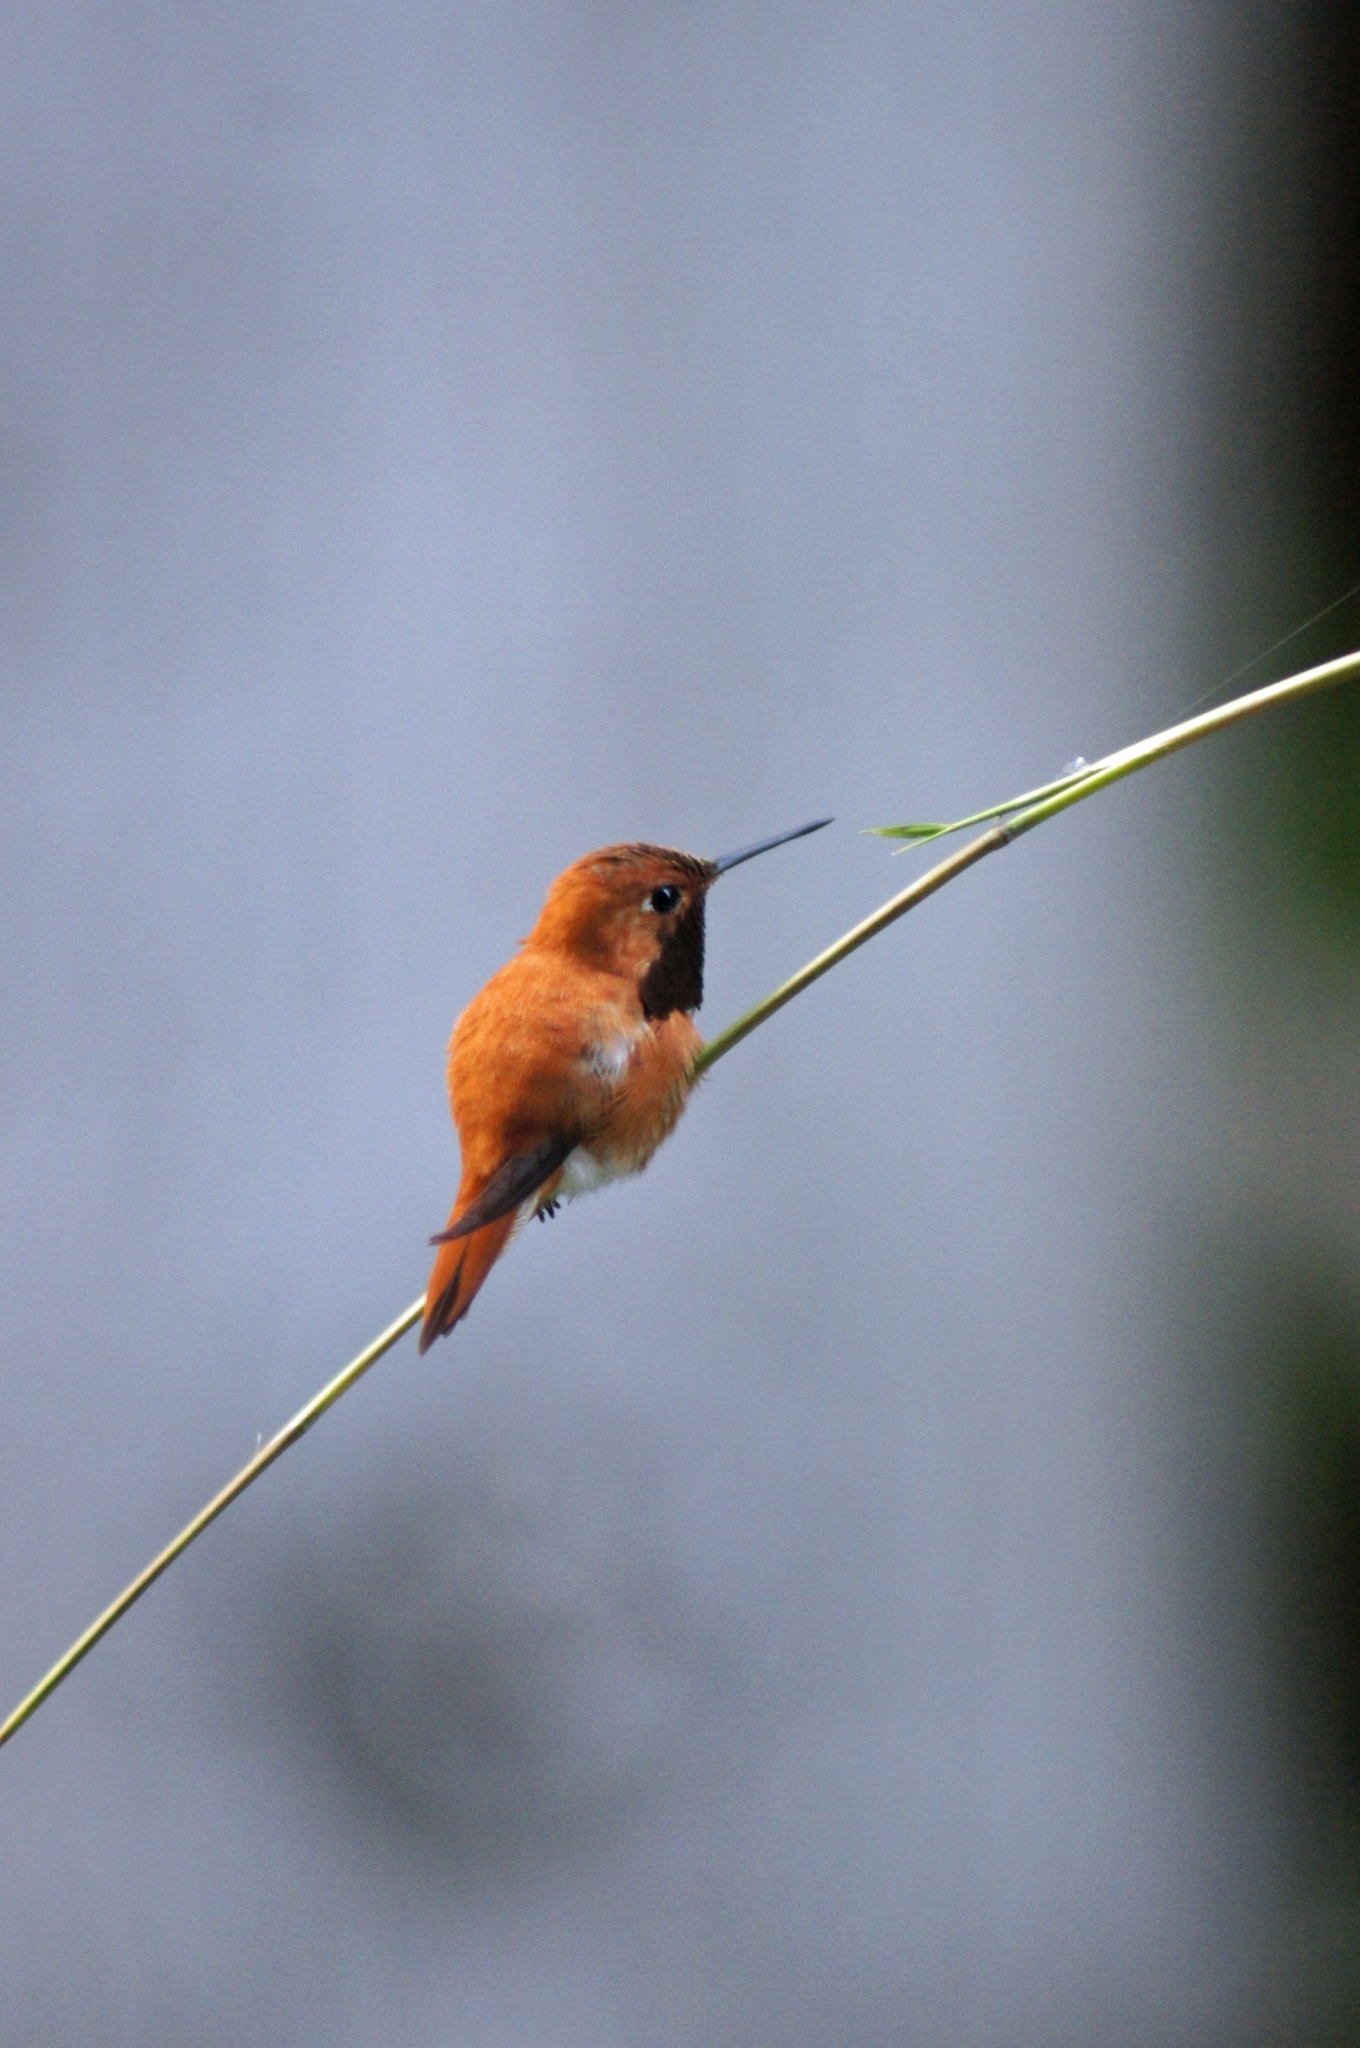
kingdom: Animalia
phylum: Chordata
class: Aves
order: Apodiformes
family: Trochilidae
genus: Selasphorus
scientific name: Selasphorus rufus
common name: Rufous hummingbird
